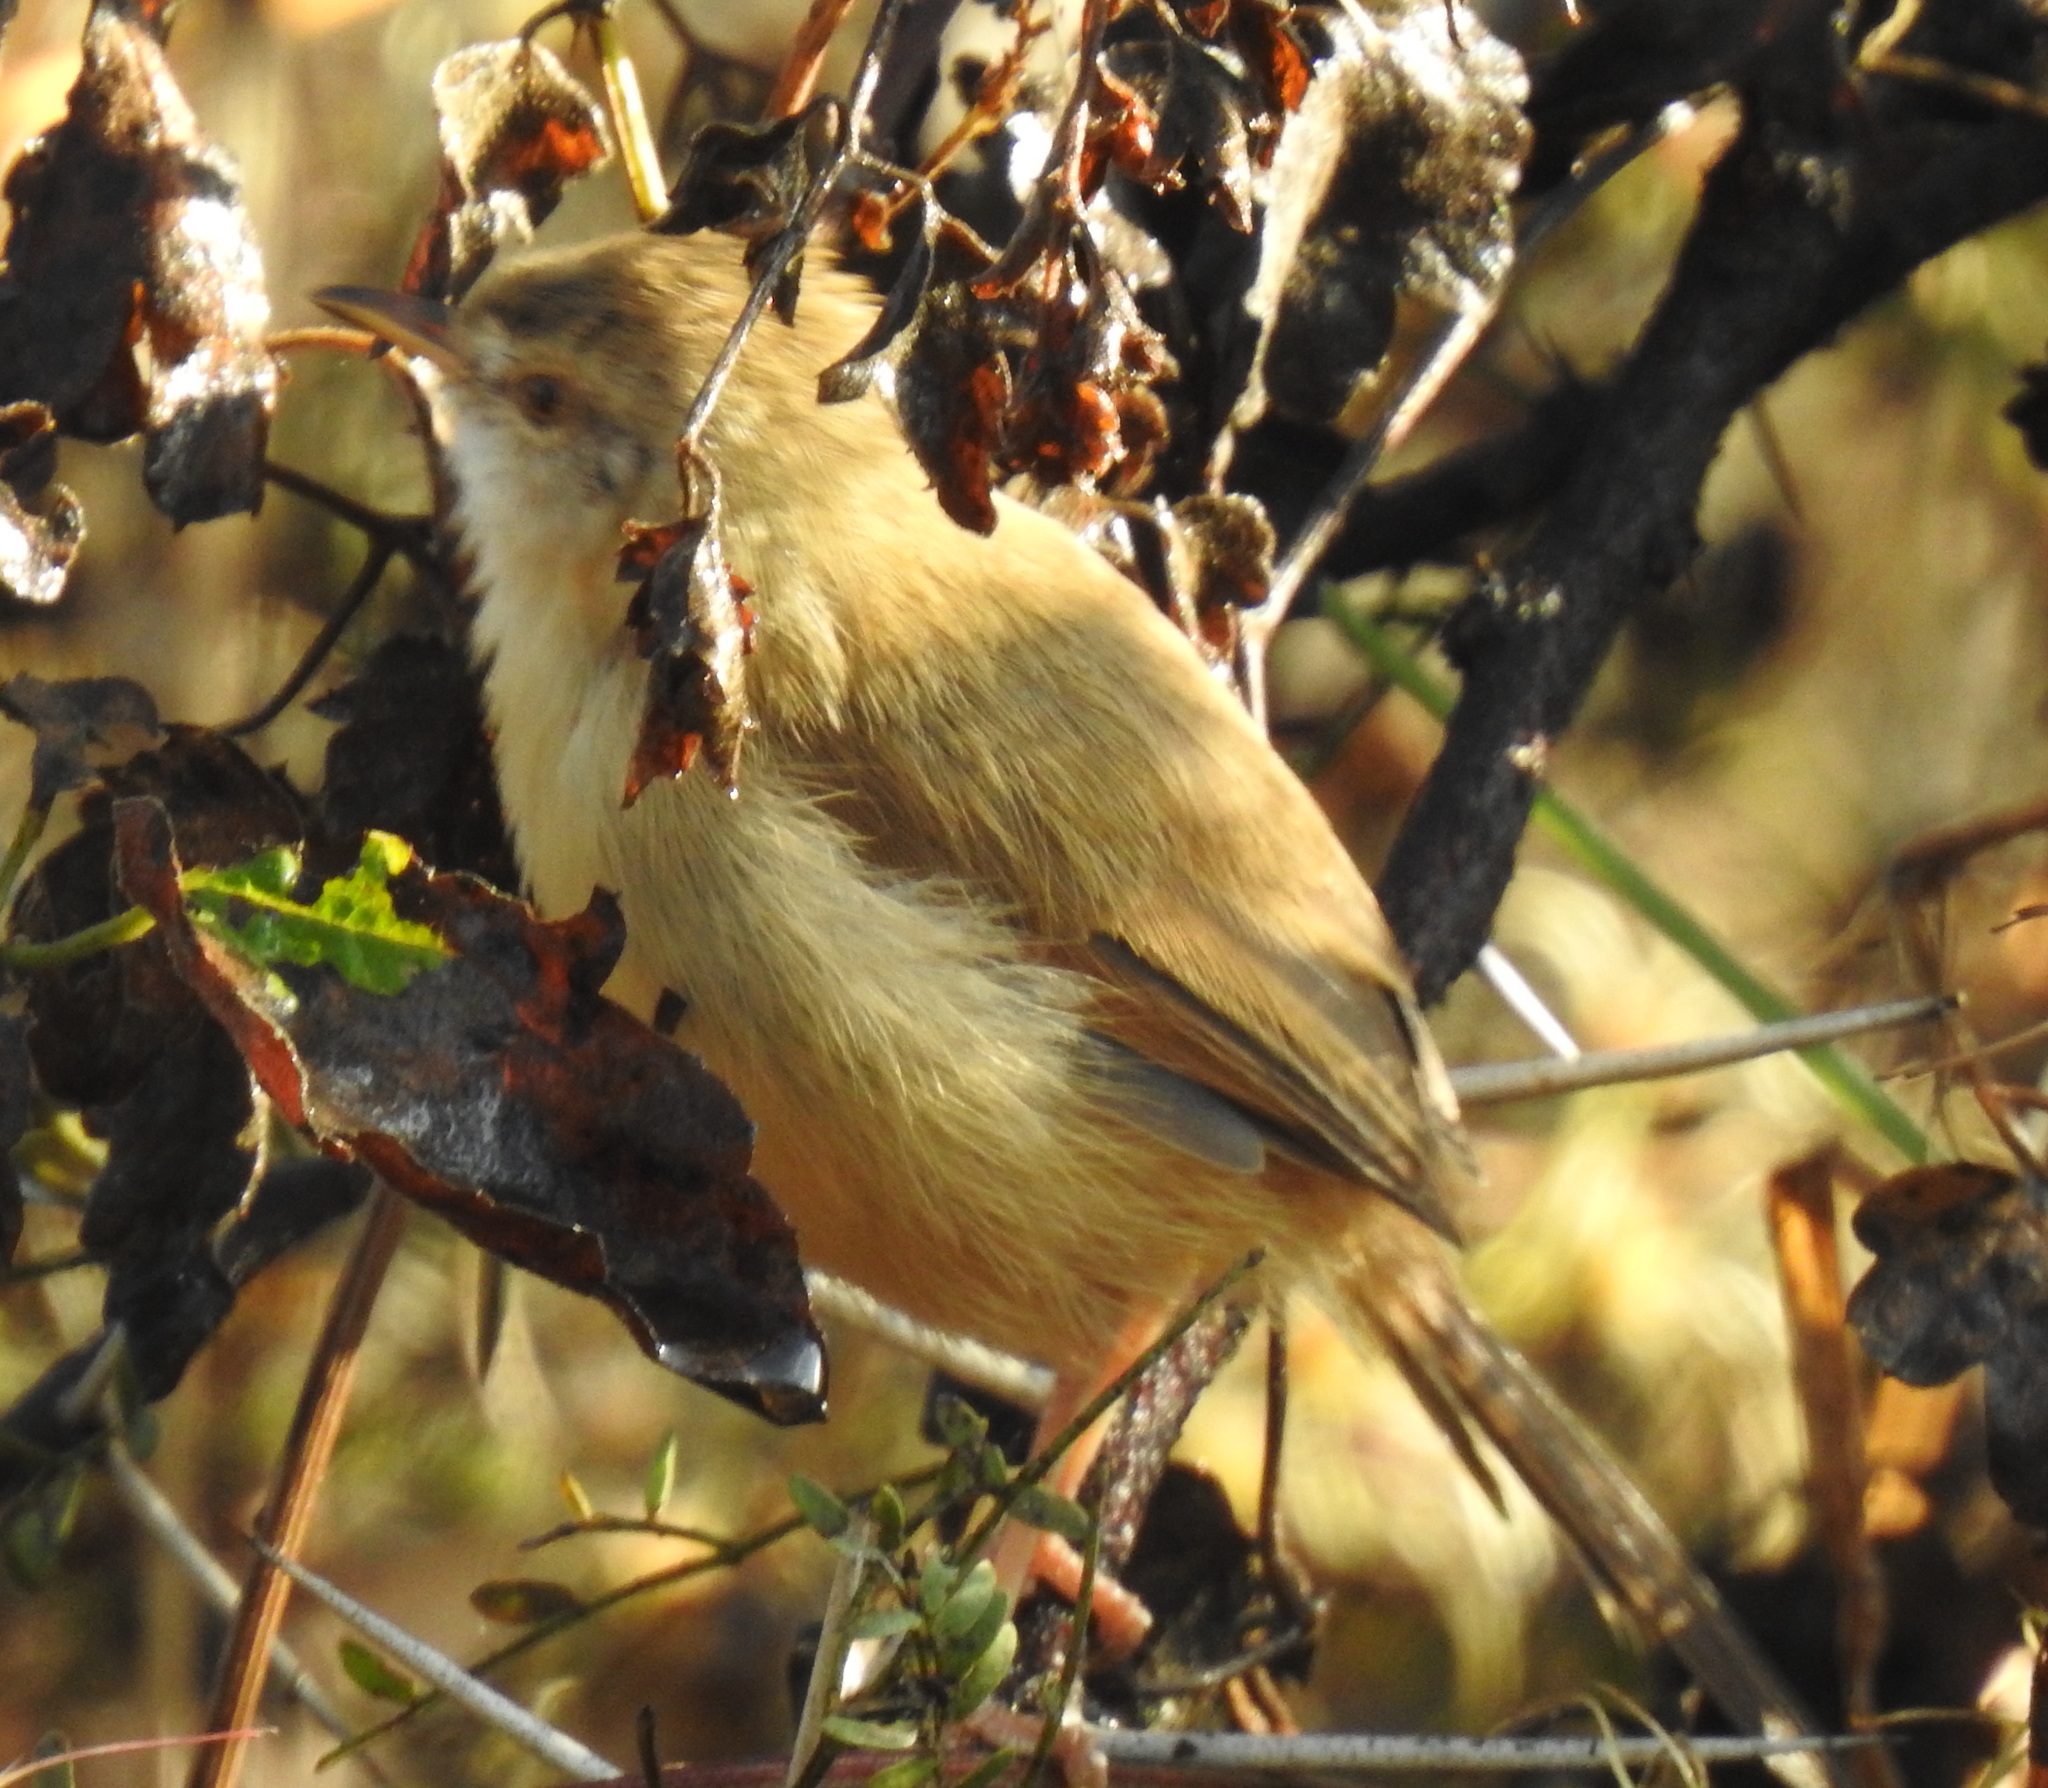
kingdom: Animalia
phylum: Chordata
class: Aves
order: Passeriformes
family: Cisticolidae
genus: Prinia
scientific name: Prinia subflava
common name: Tawny-flanked prinia
